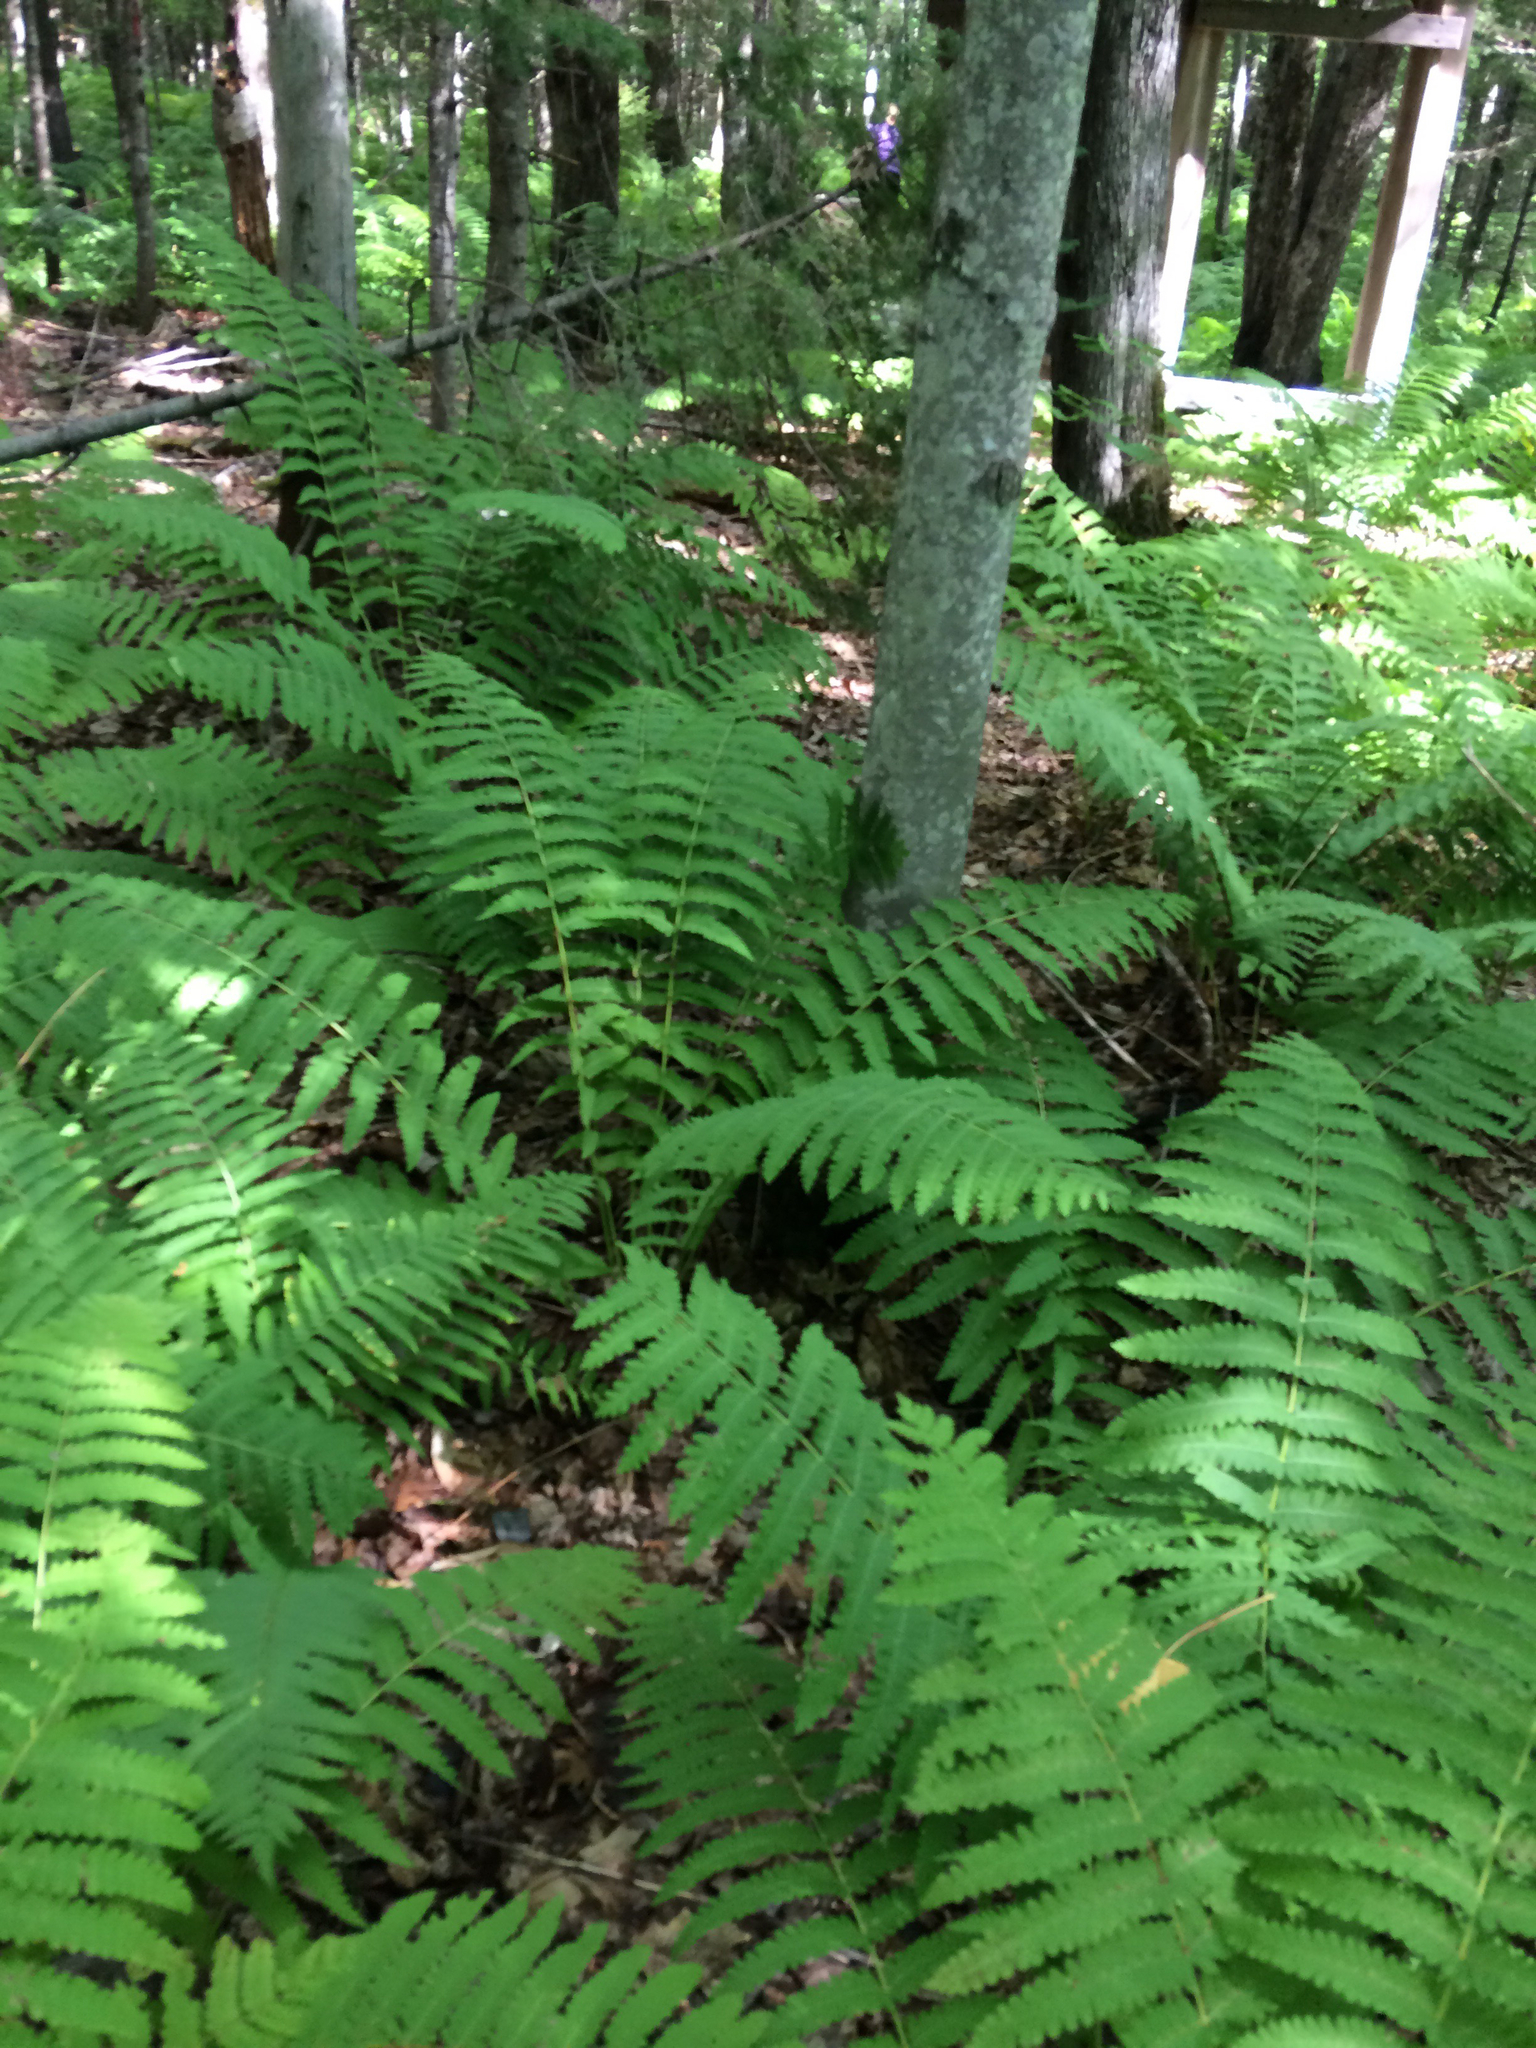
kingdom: Plantae
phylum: Tracheophyta
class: Polypodiopsida
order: Osmundales
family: Osmundaceae
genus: Claytosmunda
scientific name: Claytosmunda claytoniana
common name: Clayton's fern
